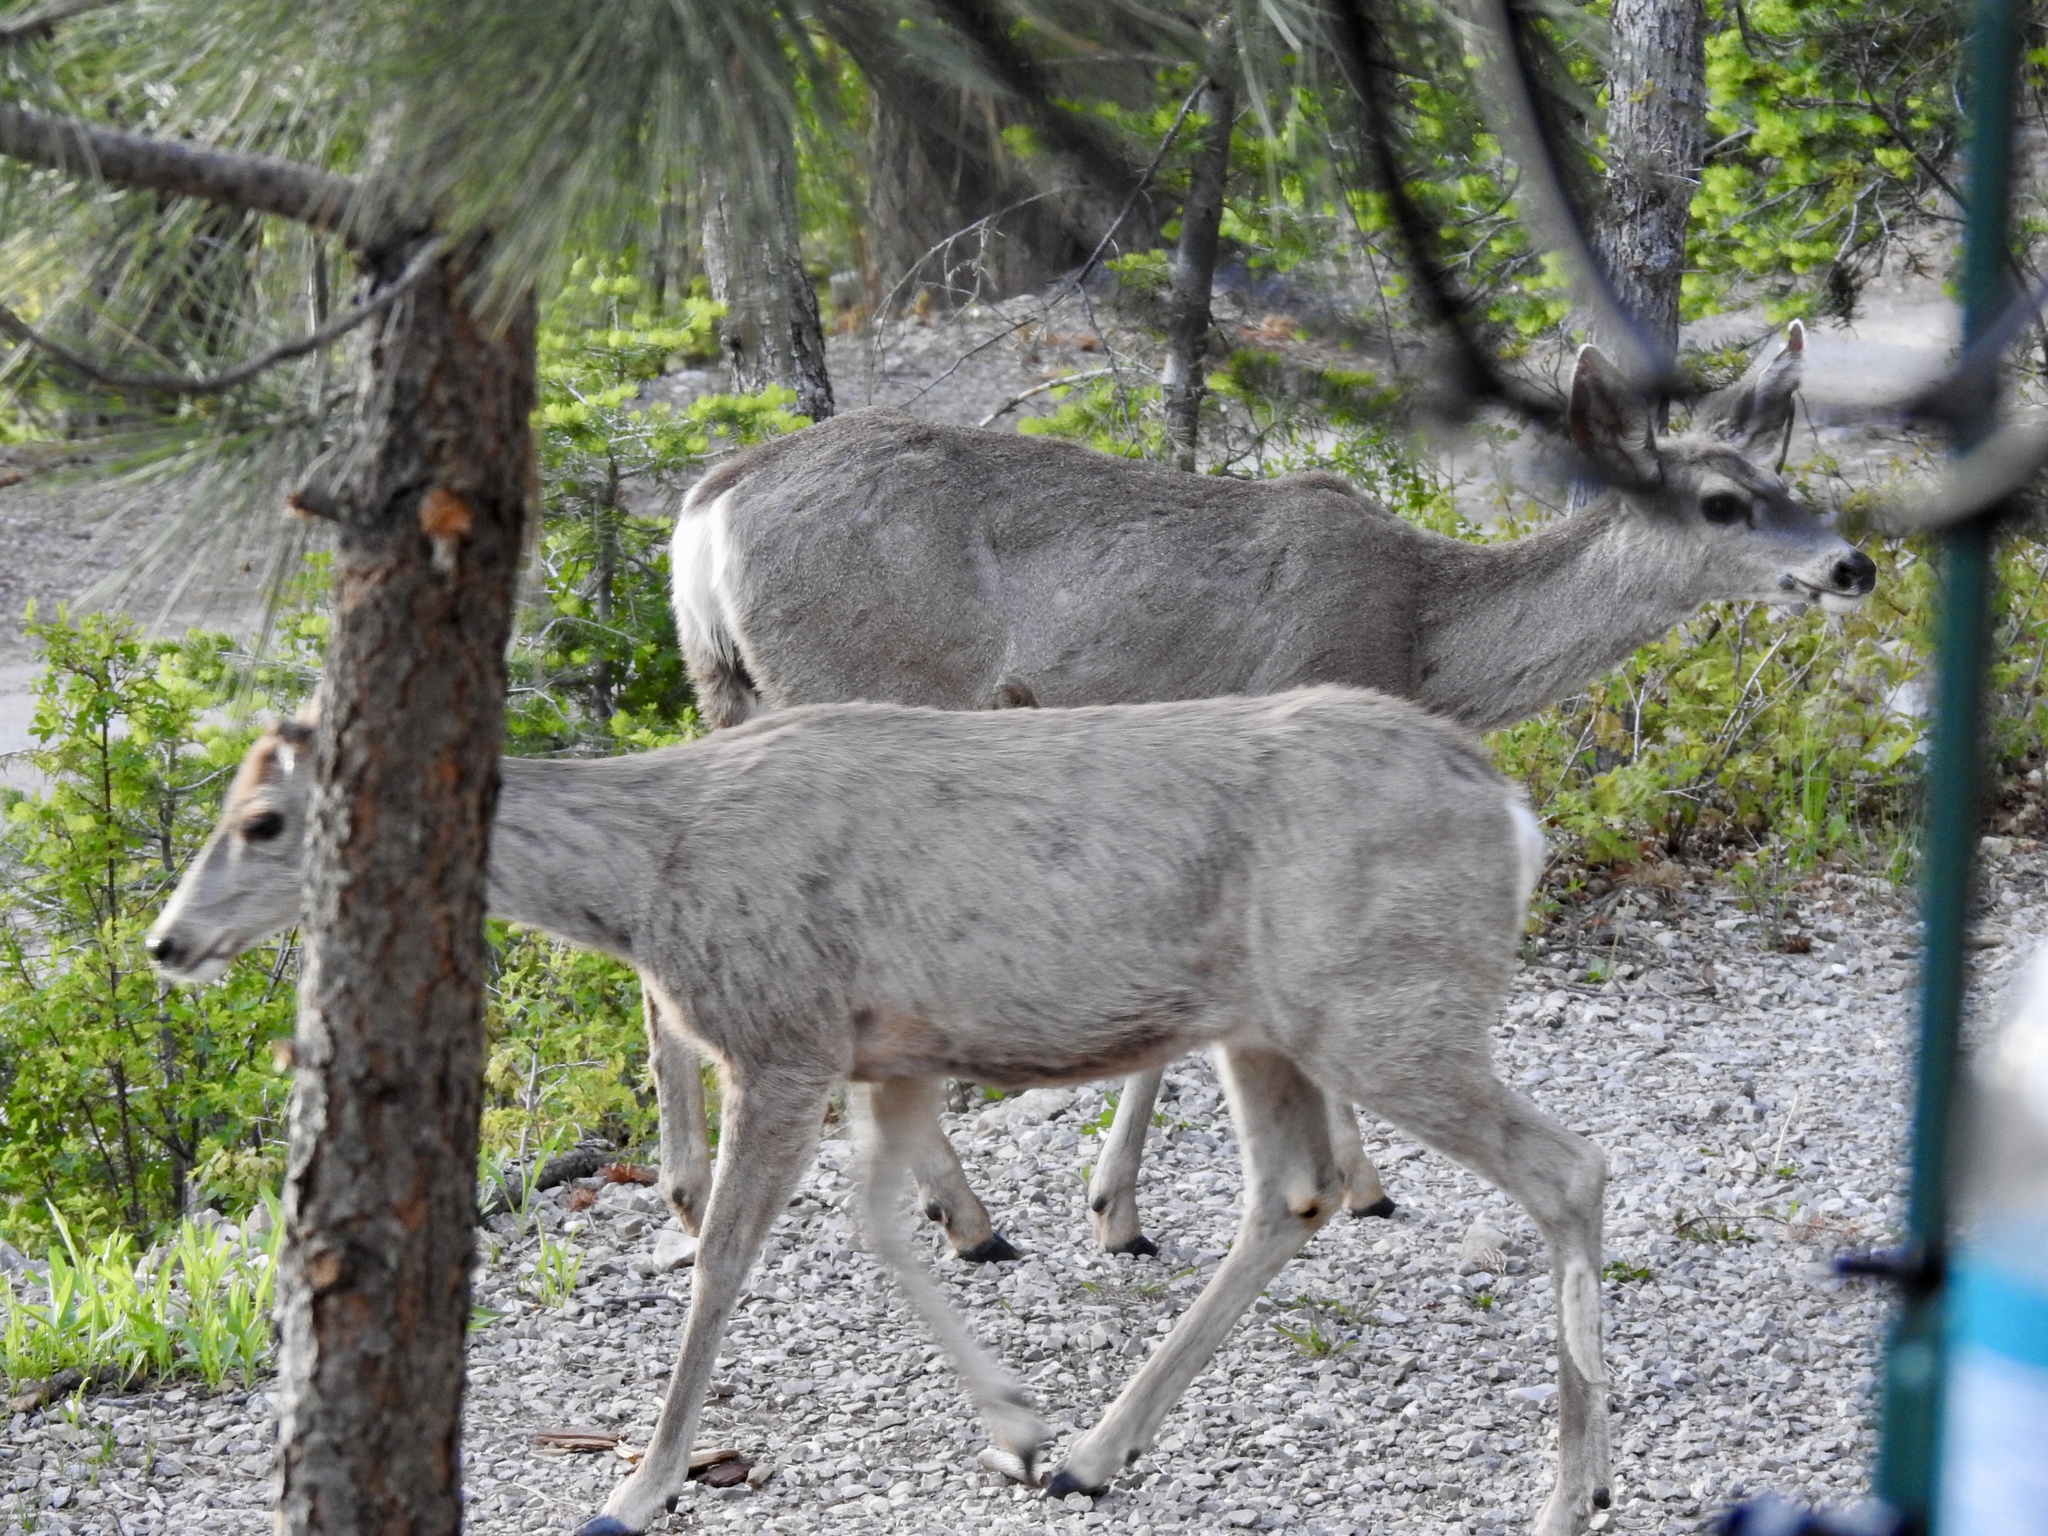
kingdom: Animalia
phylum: Chordata
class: Mammalia
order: Artiodactyla
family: Cervidae
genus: Odocoileus
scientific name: Odocoileus hemionus
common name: Mule deer
